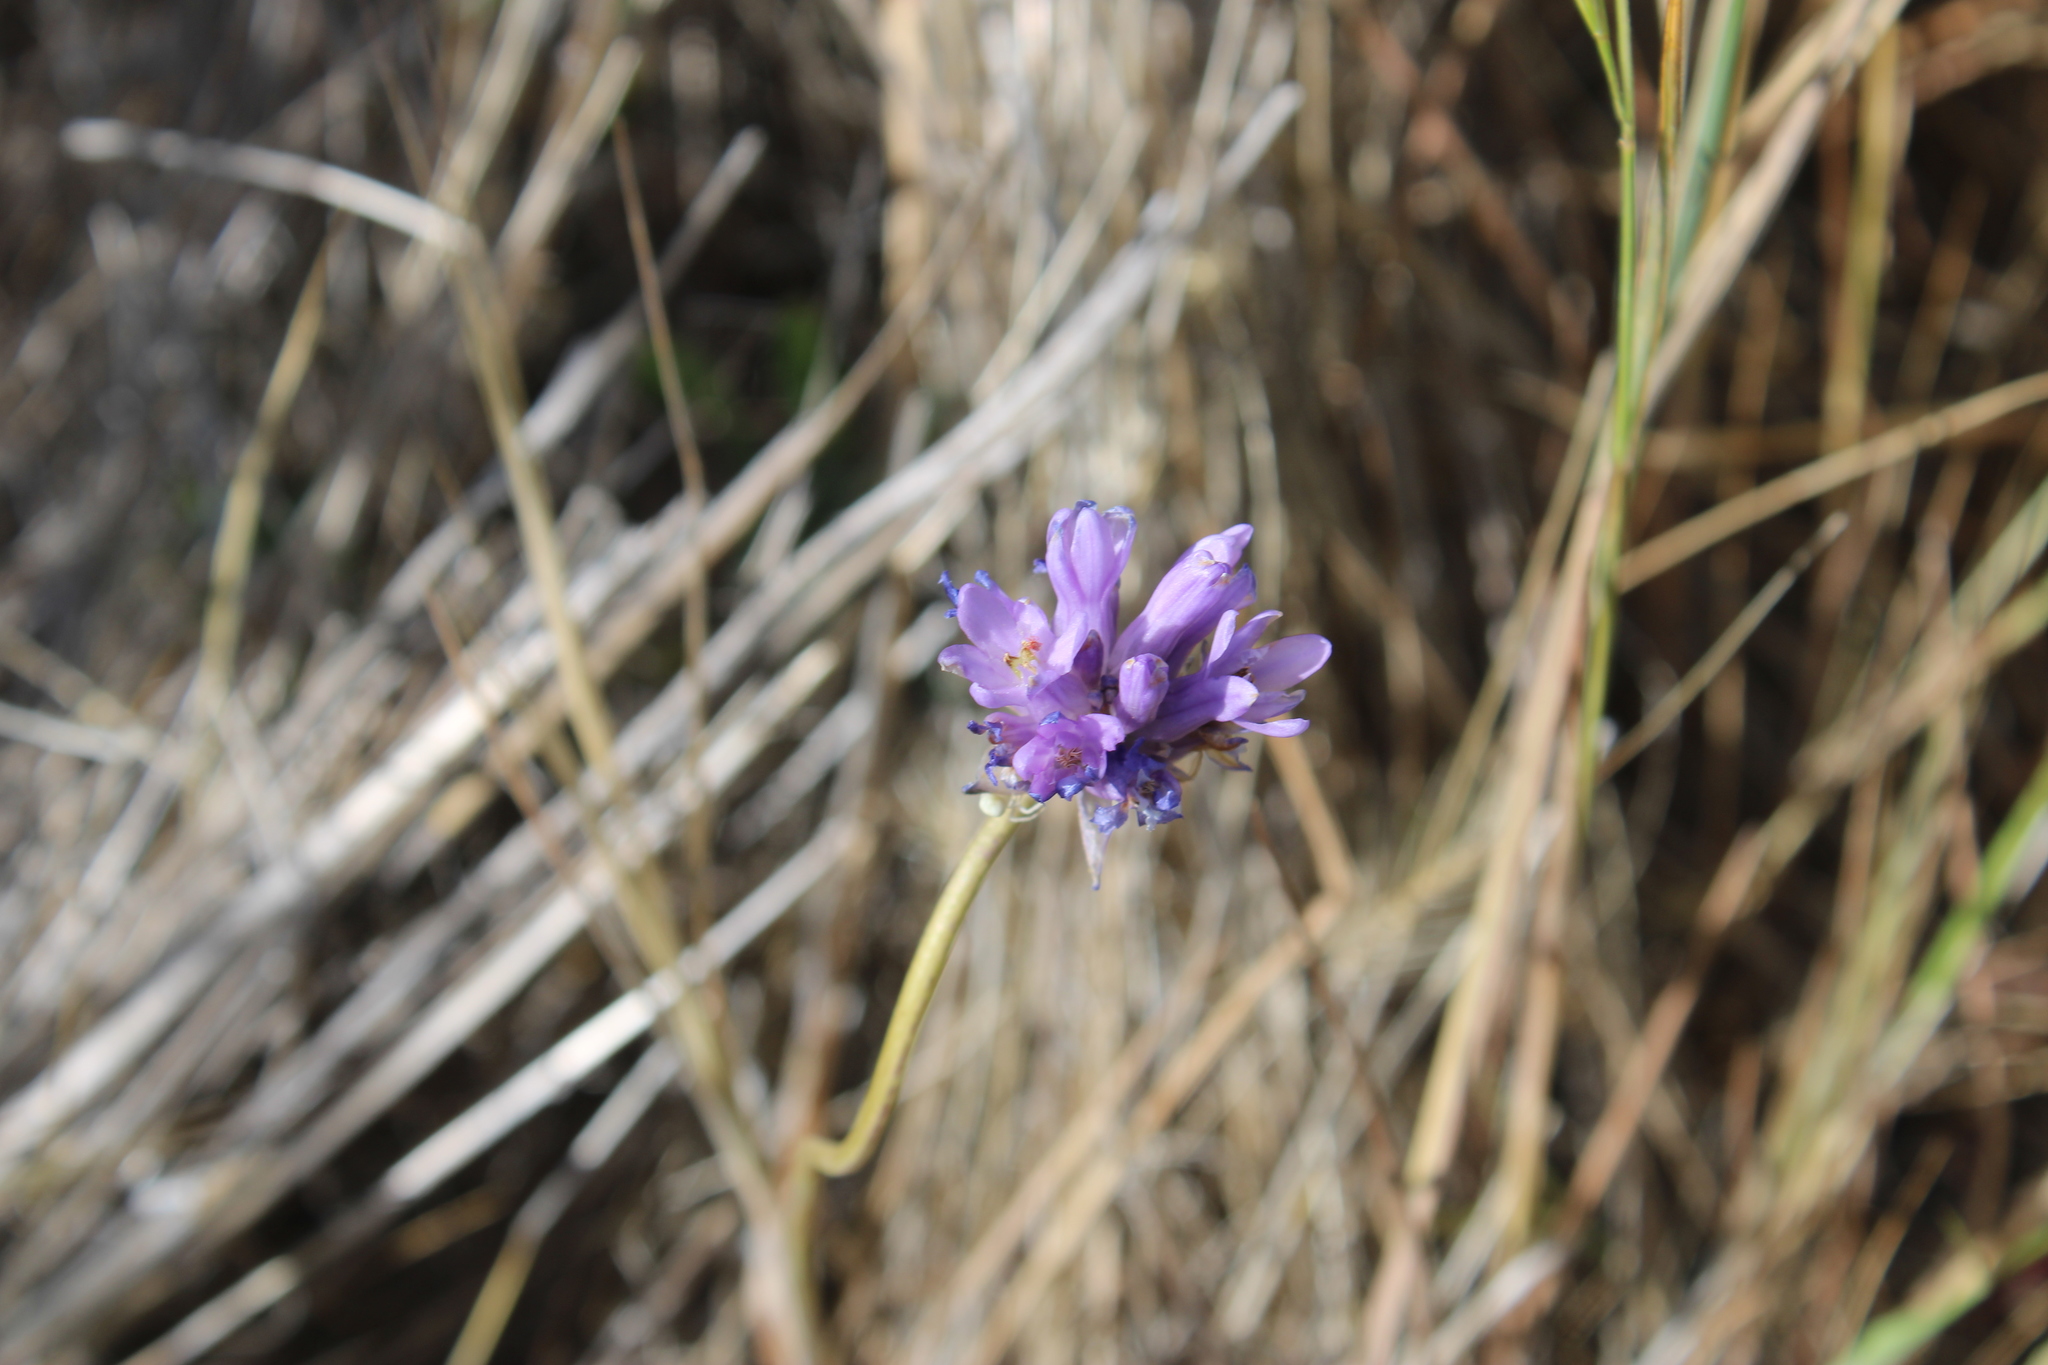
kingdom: Plantae
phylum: Tracheophyta
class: Liliopsida
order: Asparagales
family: Asparagaceae
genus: Dichelostemma
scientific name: Dichelostemma congestum
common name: Fork-tooth ookow
